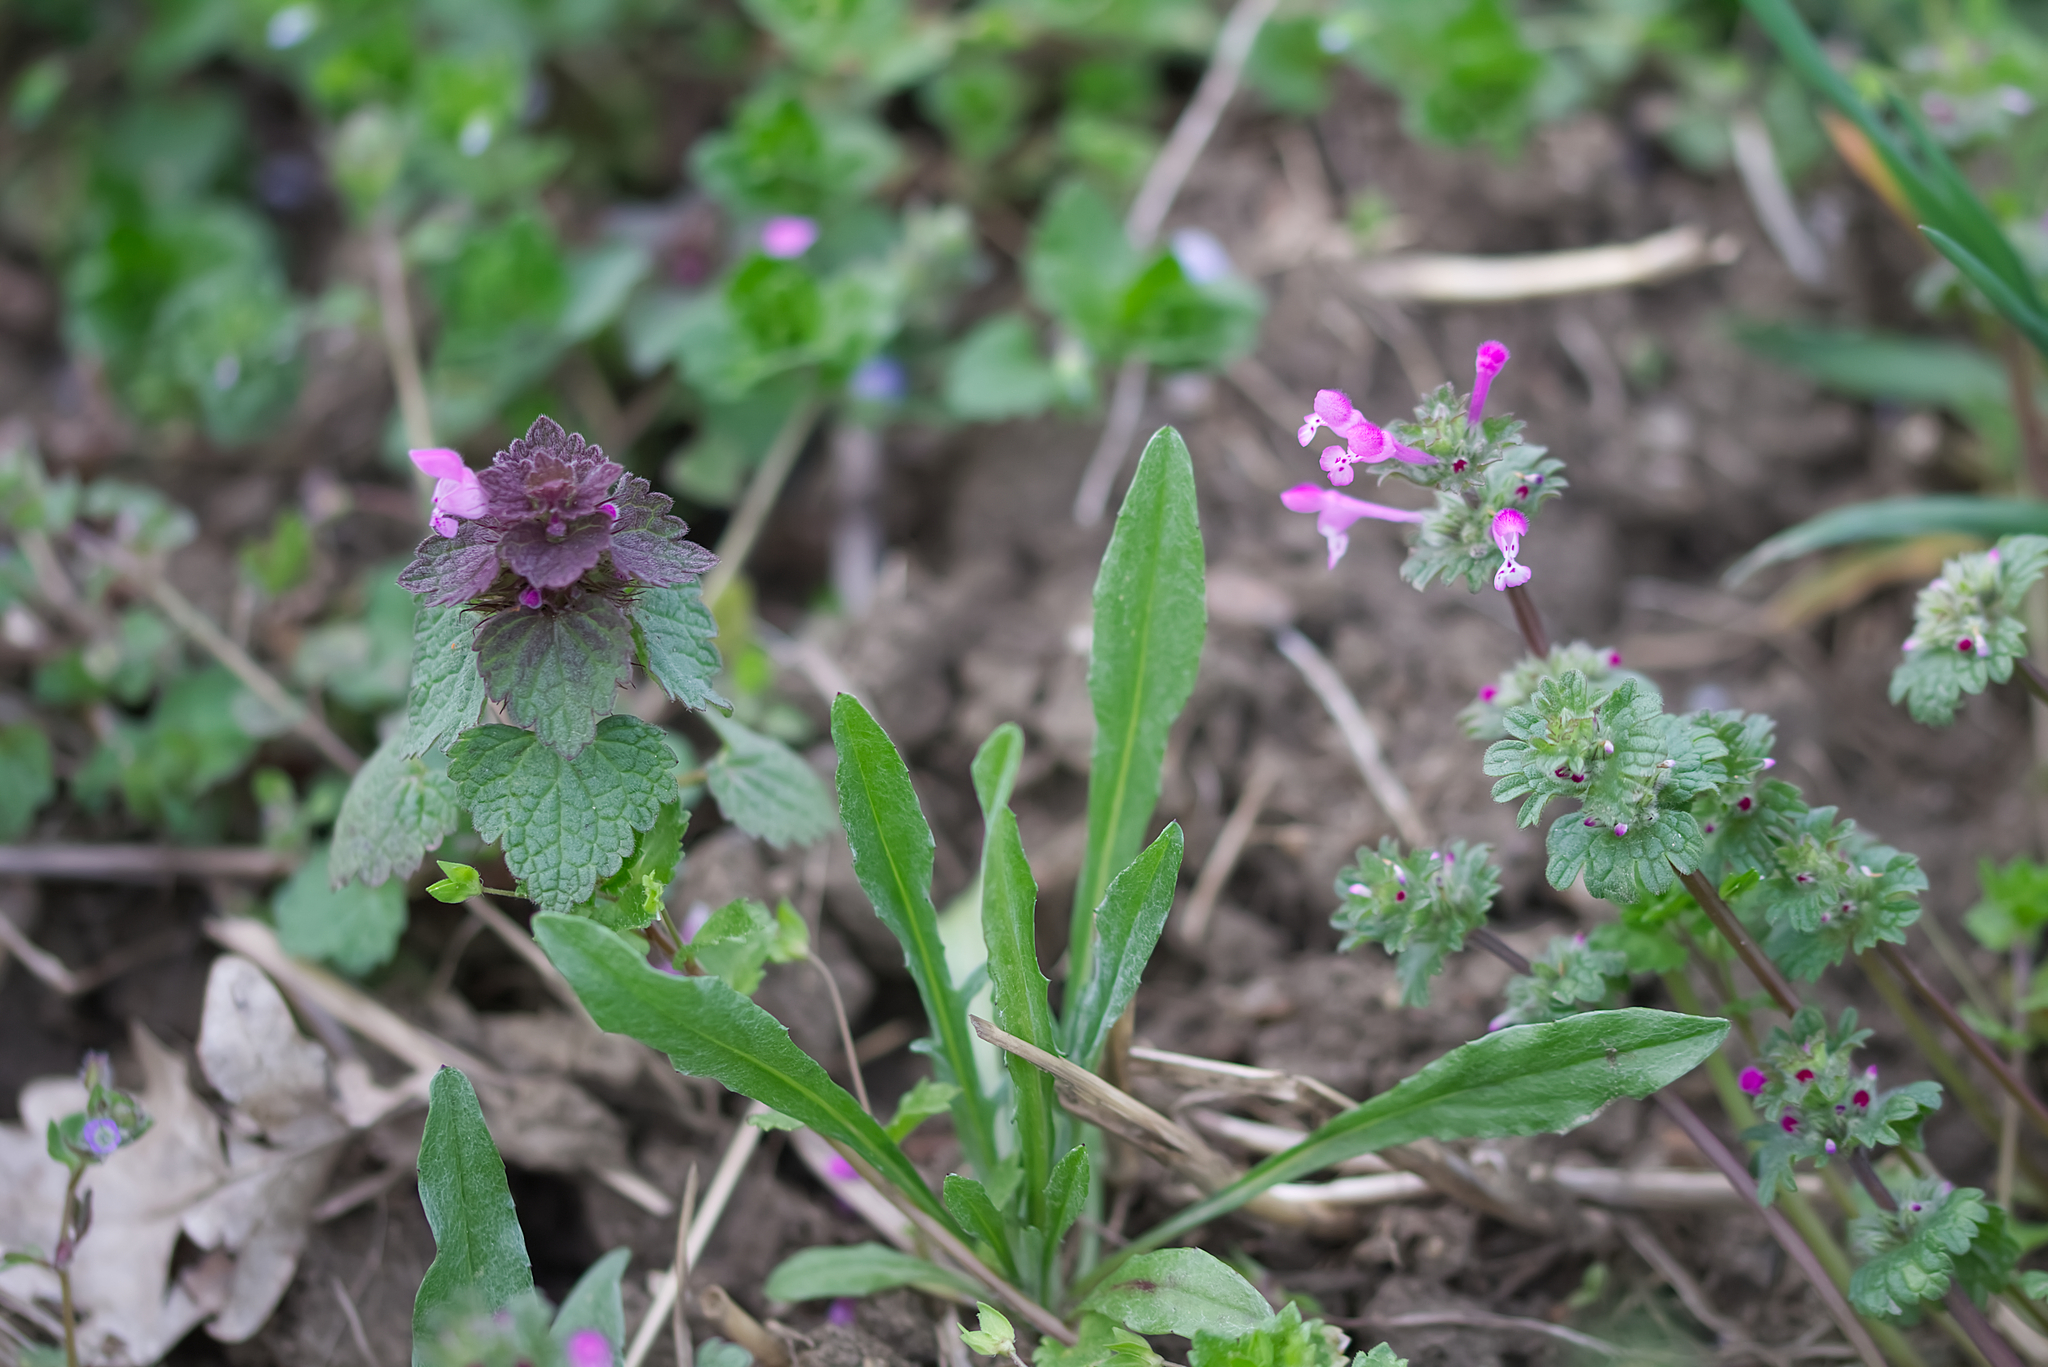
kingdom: Plantae
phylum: Tracheophyta
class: Magnoliopsida
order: Lamiales
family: Lamiaceae
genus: Lamium
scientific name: Lamium amplexicaule
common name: Henbit dead-nettle
